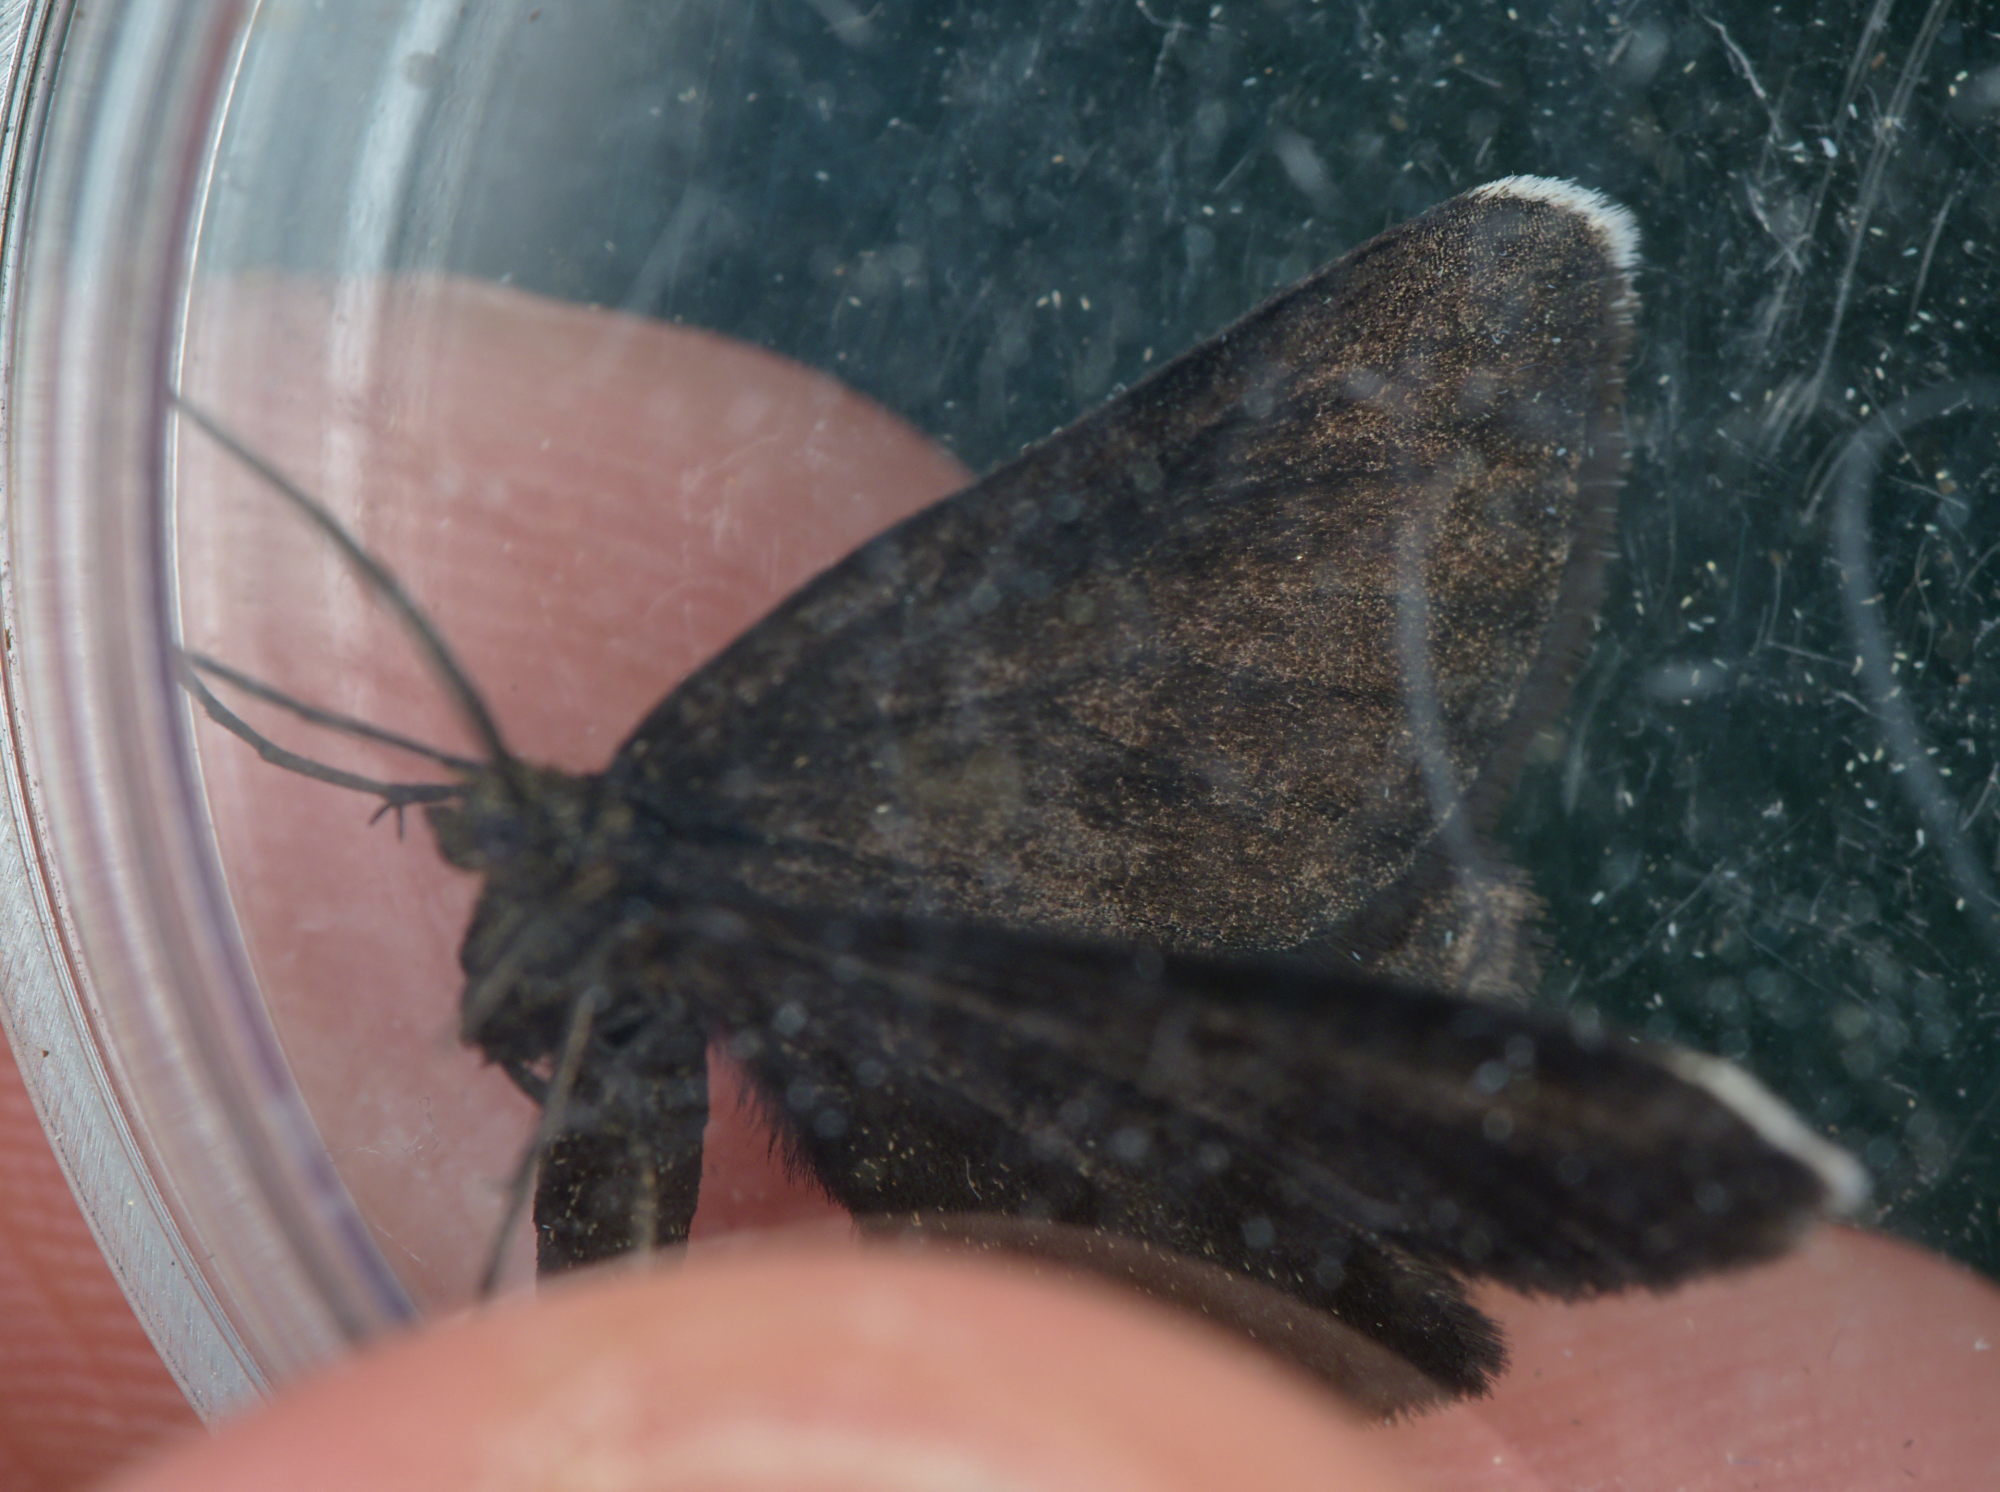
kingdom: Animalia
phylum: Arthropoda
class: Insecta
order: Lepidoptera
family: Geometridae
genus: Odezia
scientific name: Odezia atrata
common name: Chimney sweeper
